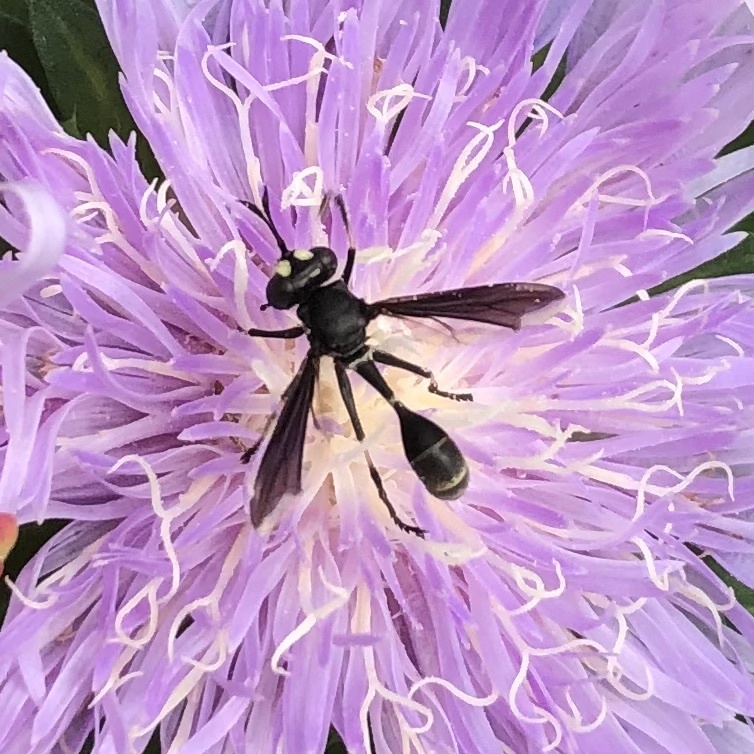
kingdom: Animalia
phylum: Arthropoda
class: Insecta
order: Diptera
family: Conopidae
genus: Physocephala
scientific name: Physocephala tibialis
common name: Common eastern physocephala
